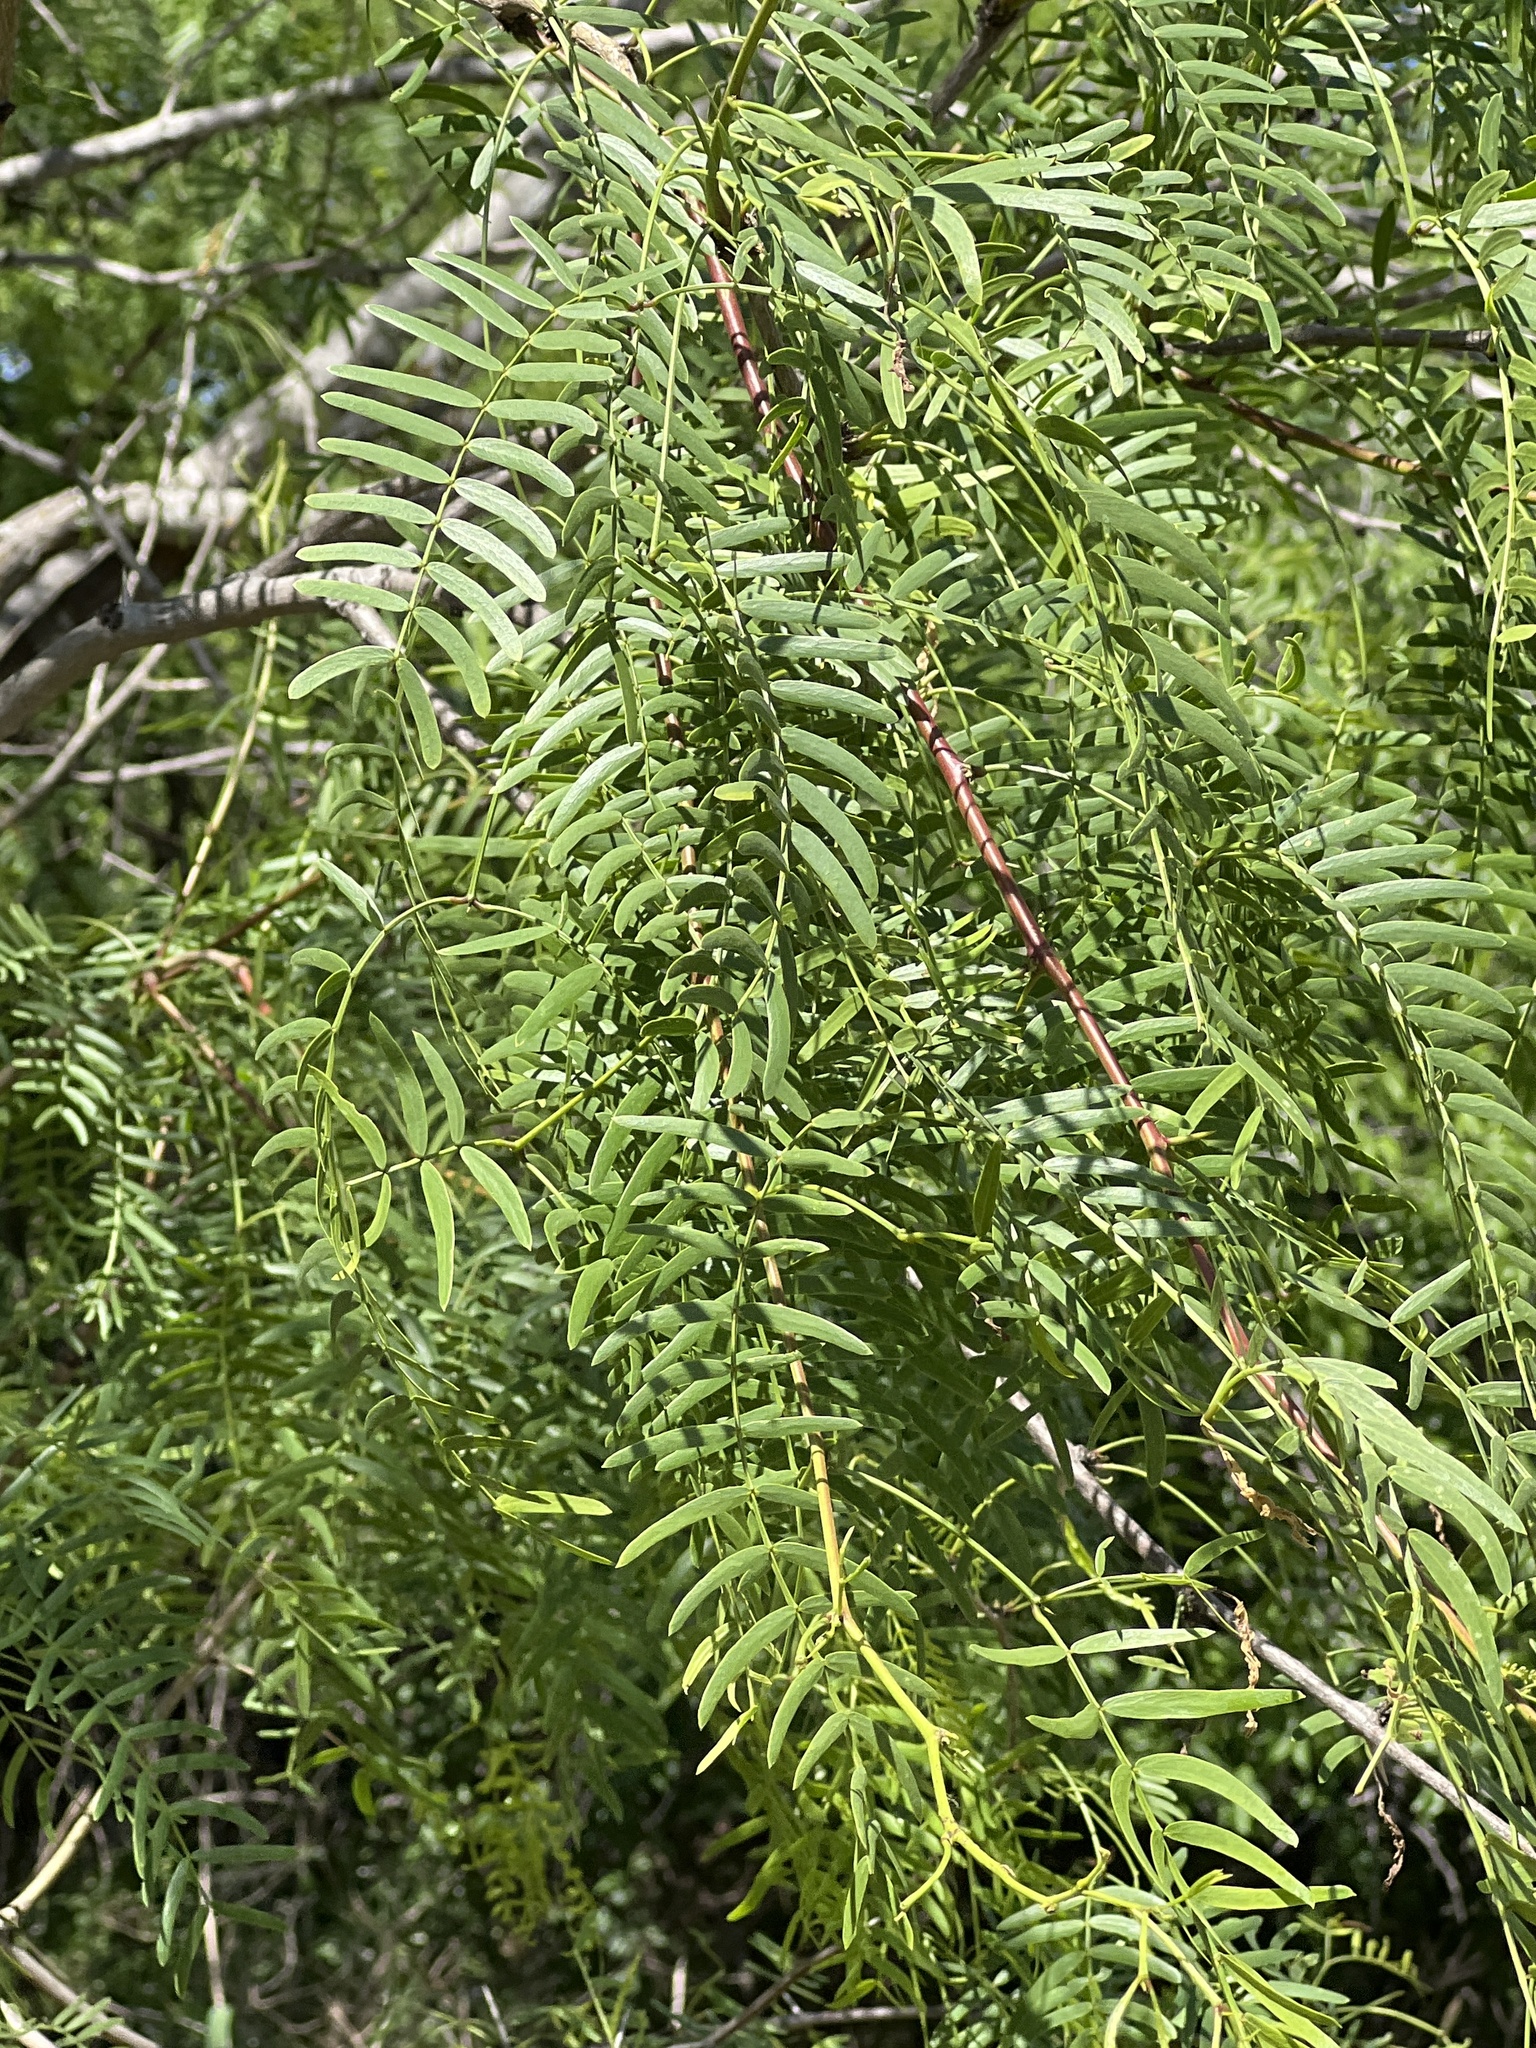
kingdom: Plantae
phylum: Tracheophyta
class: Magnoliopsida
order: Fabales
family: Fabaceae
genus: Prosopis
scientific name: Prosopis glandulosa
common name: Honey mesquite
